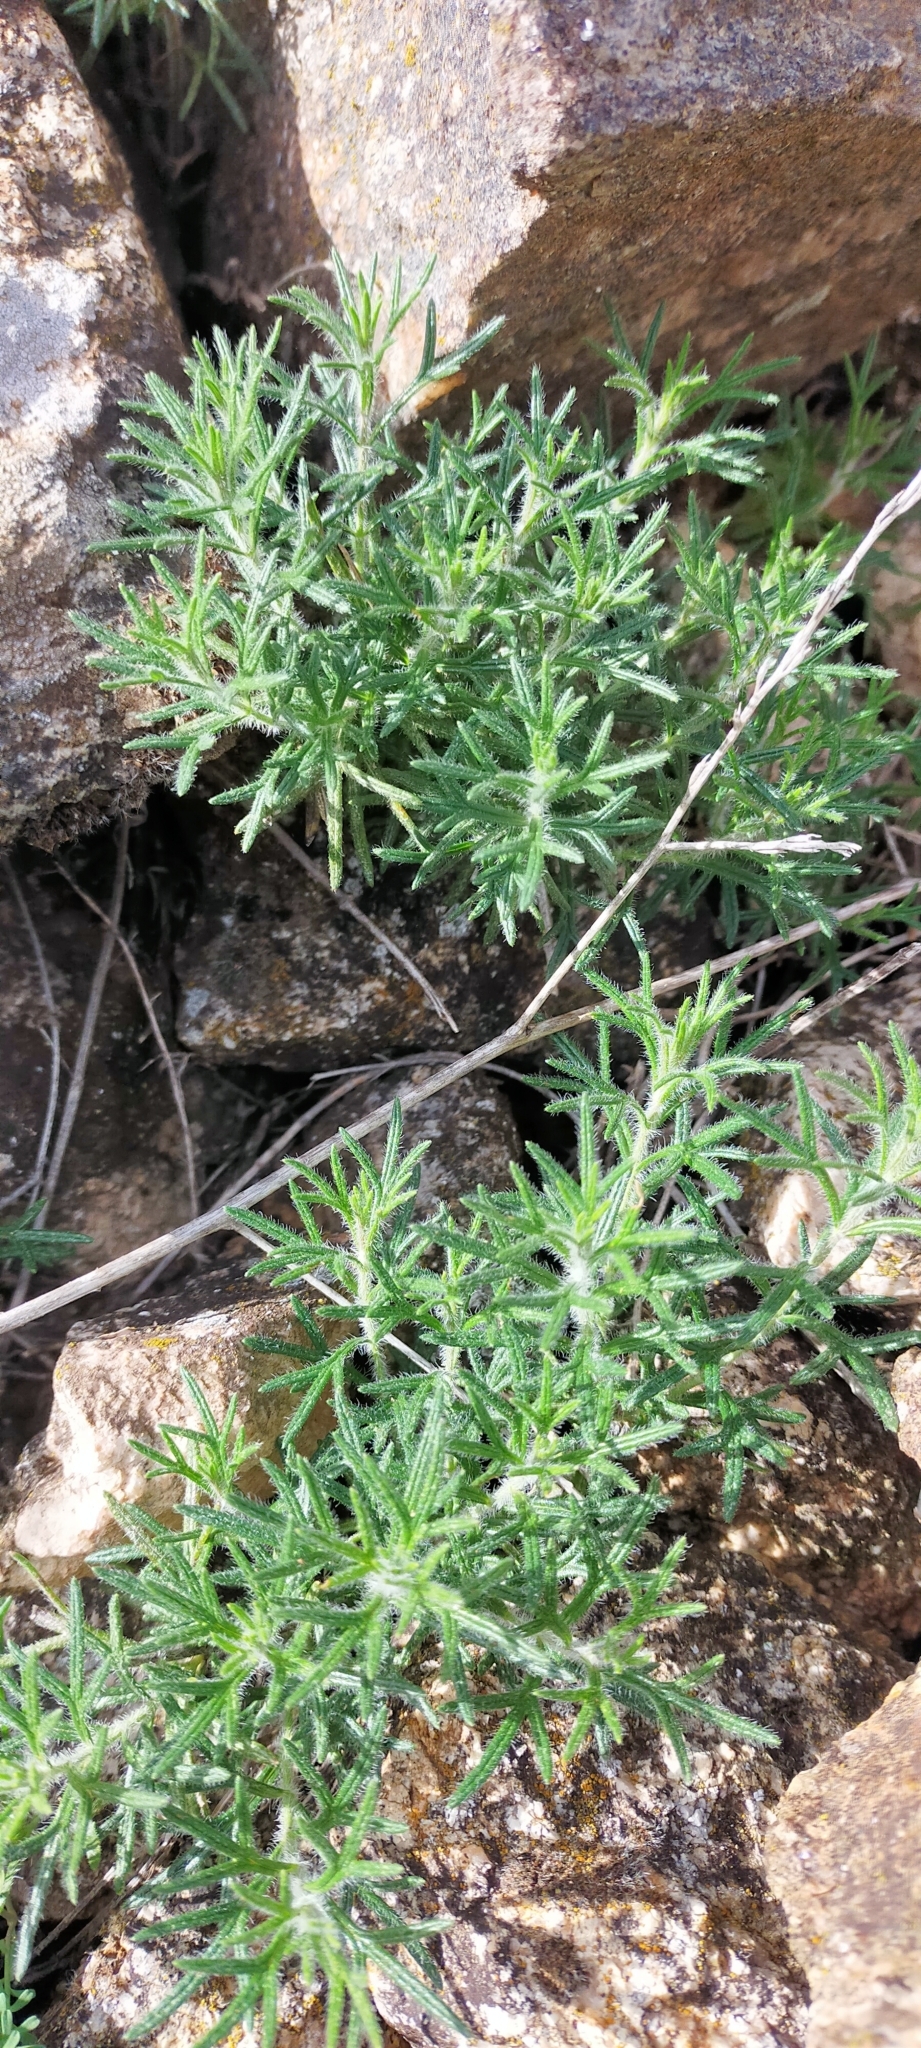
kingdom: Plantae
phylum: Tracheophyta
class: Magnoliopsida
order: Lamiales
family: Lamiaceae
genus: Teucrium
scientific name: Teucrium pseudochamaepitys
